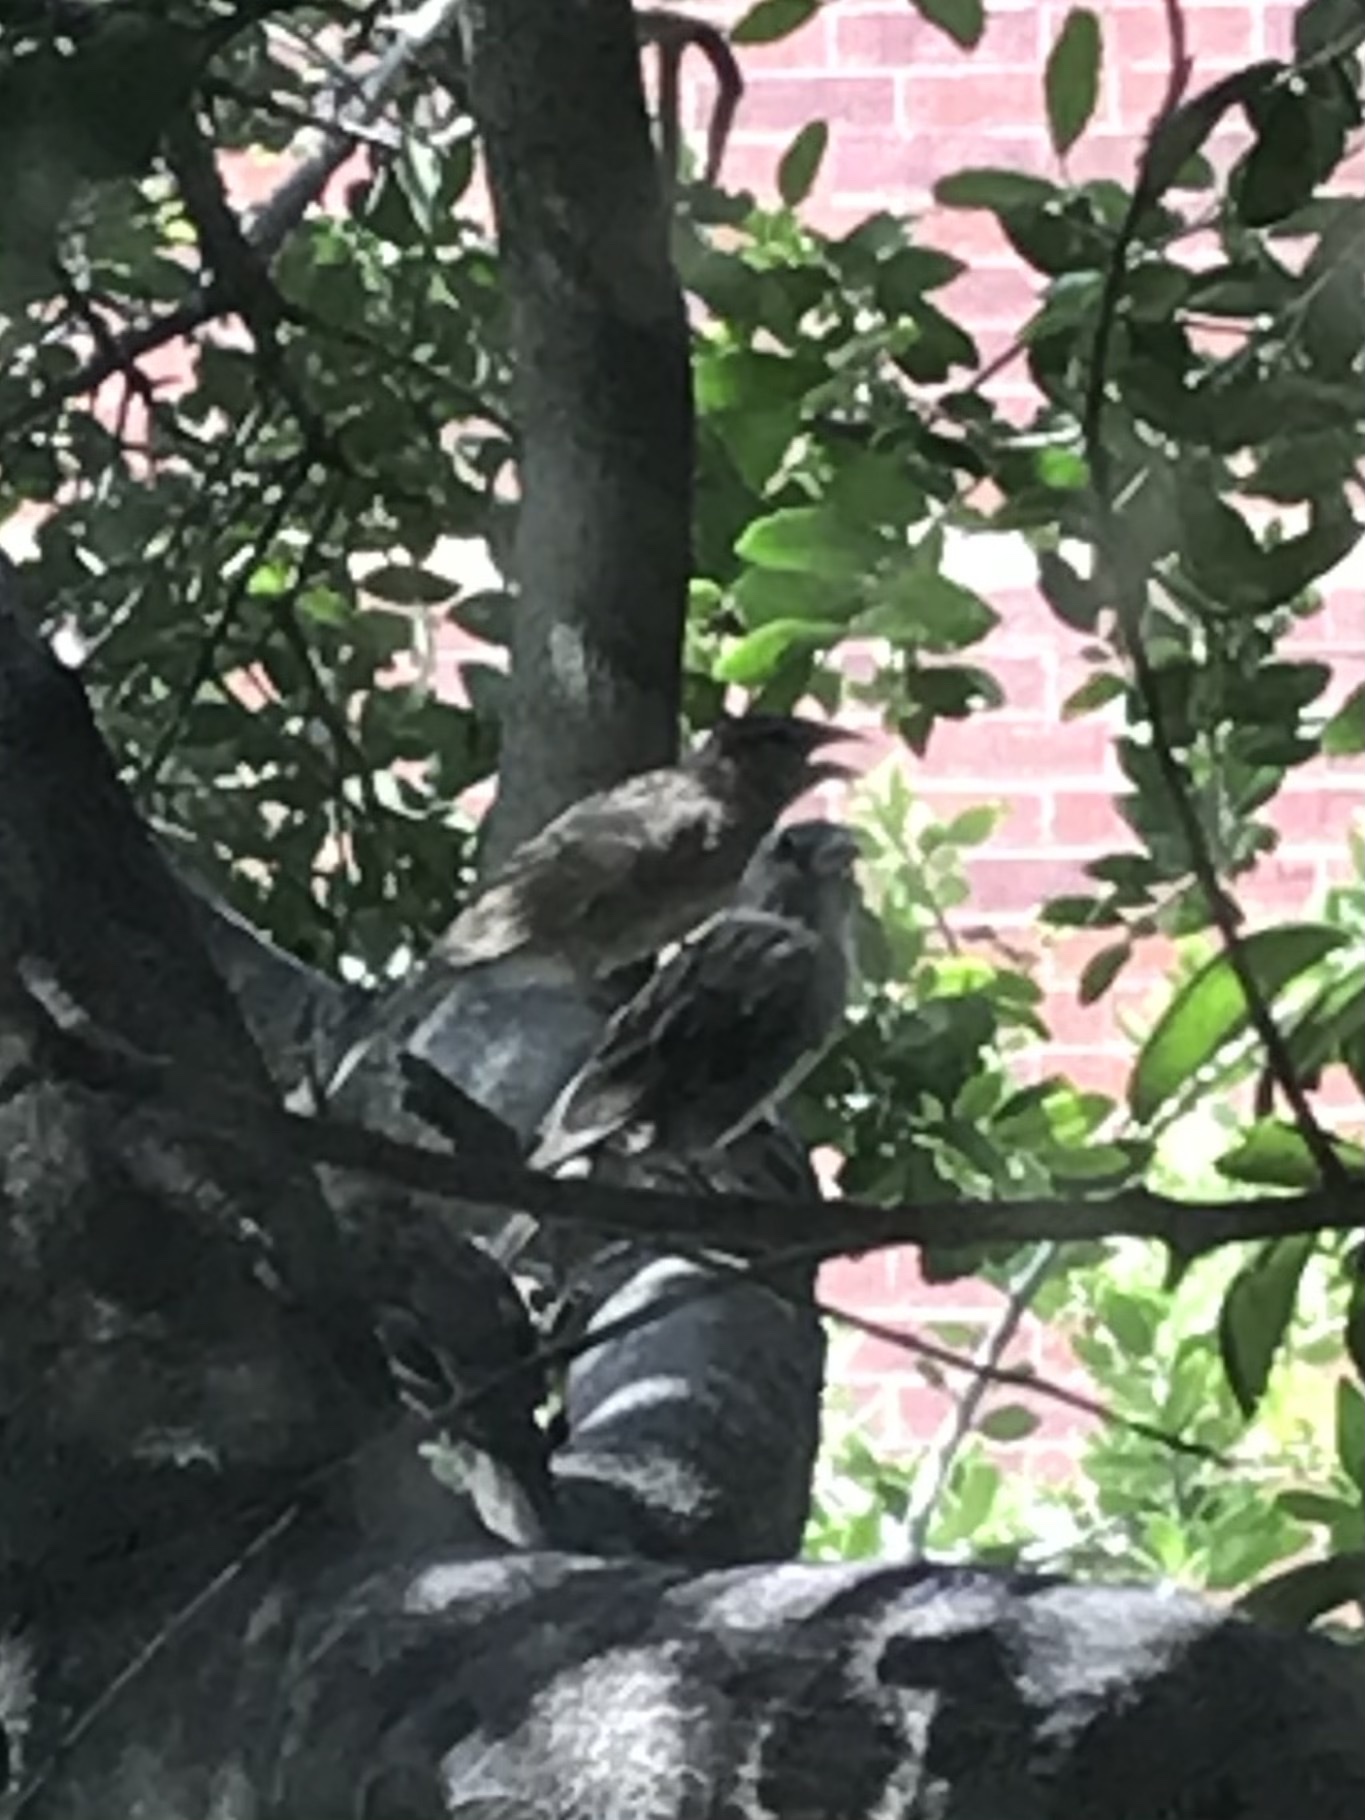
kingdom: Animalia
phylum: Chordata
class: Aves
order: Passeriformes
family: Fringillidae
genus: Haemorhous
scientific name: Haemorhous mexicanus
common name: House finch
